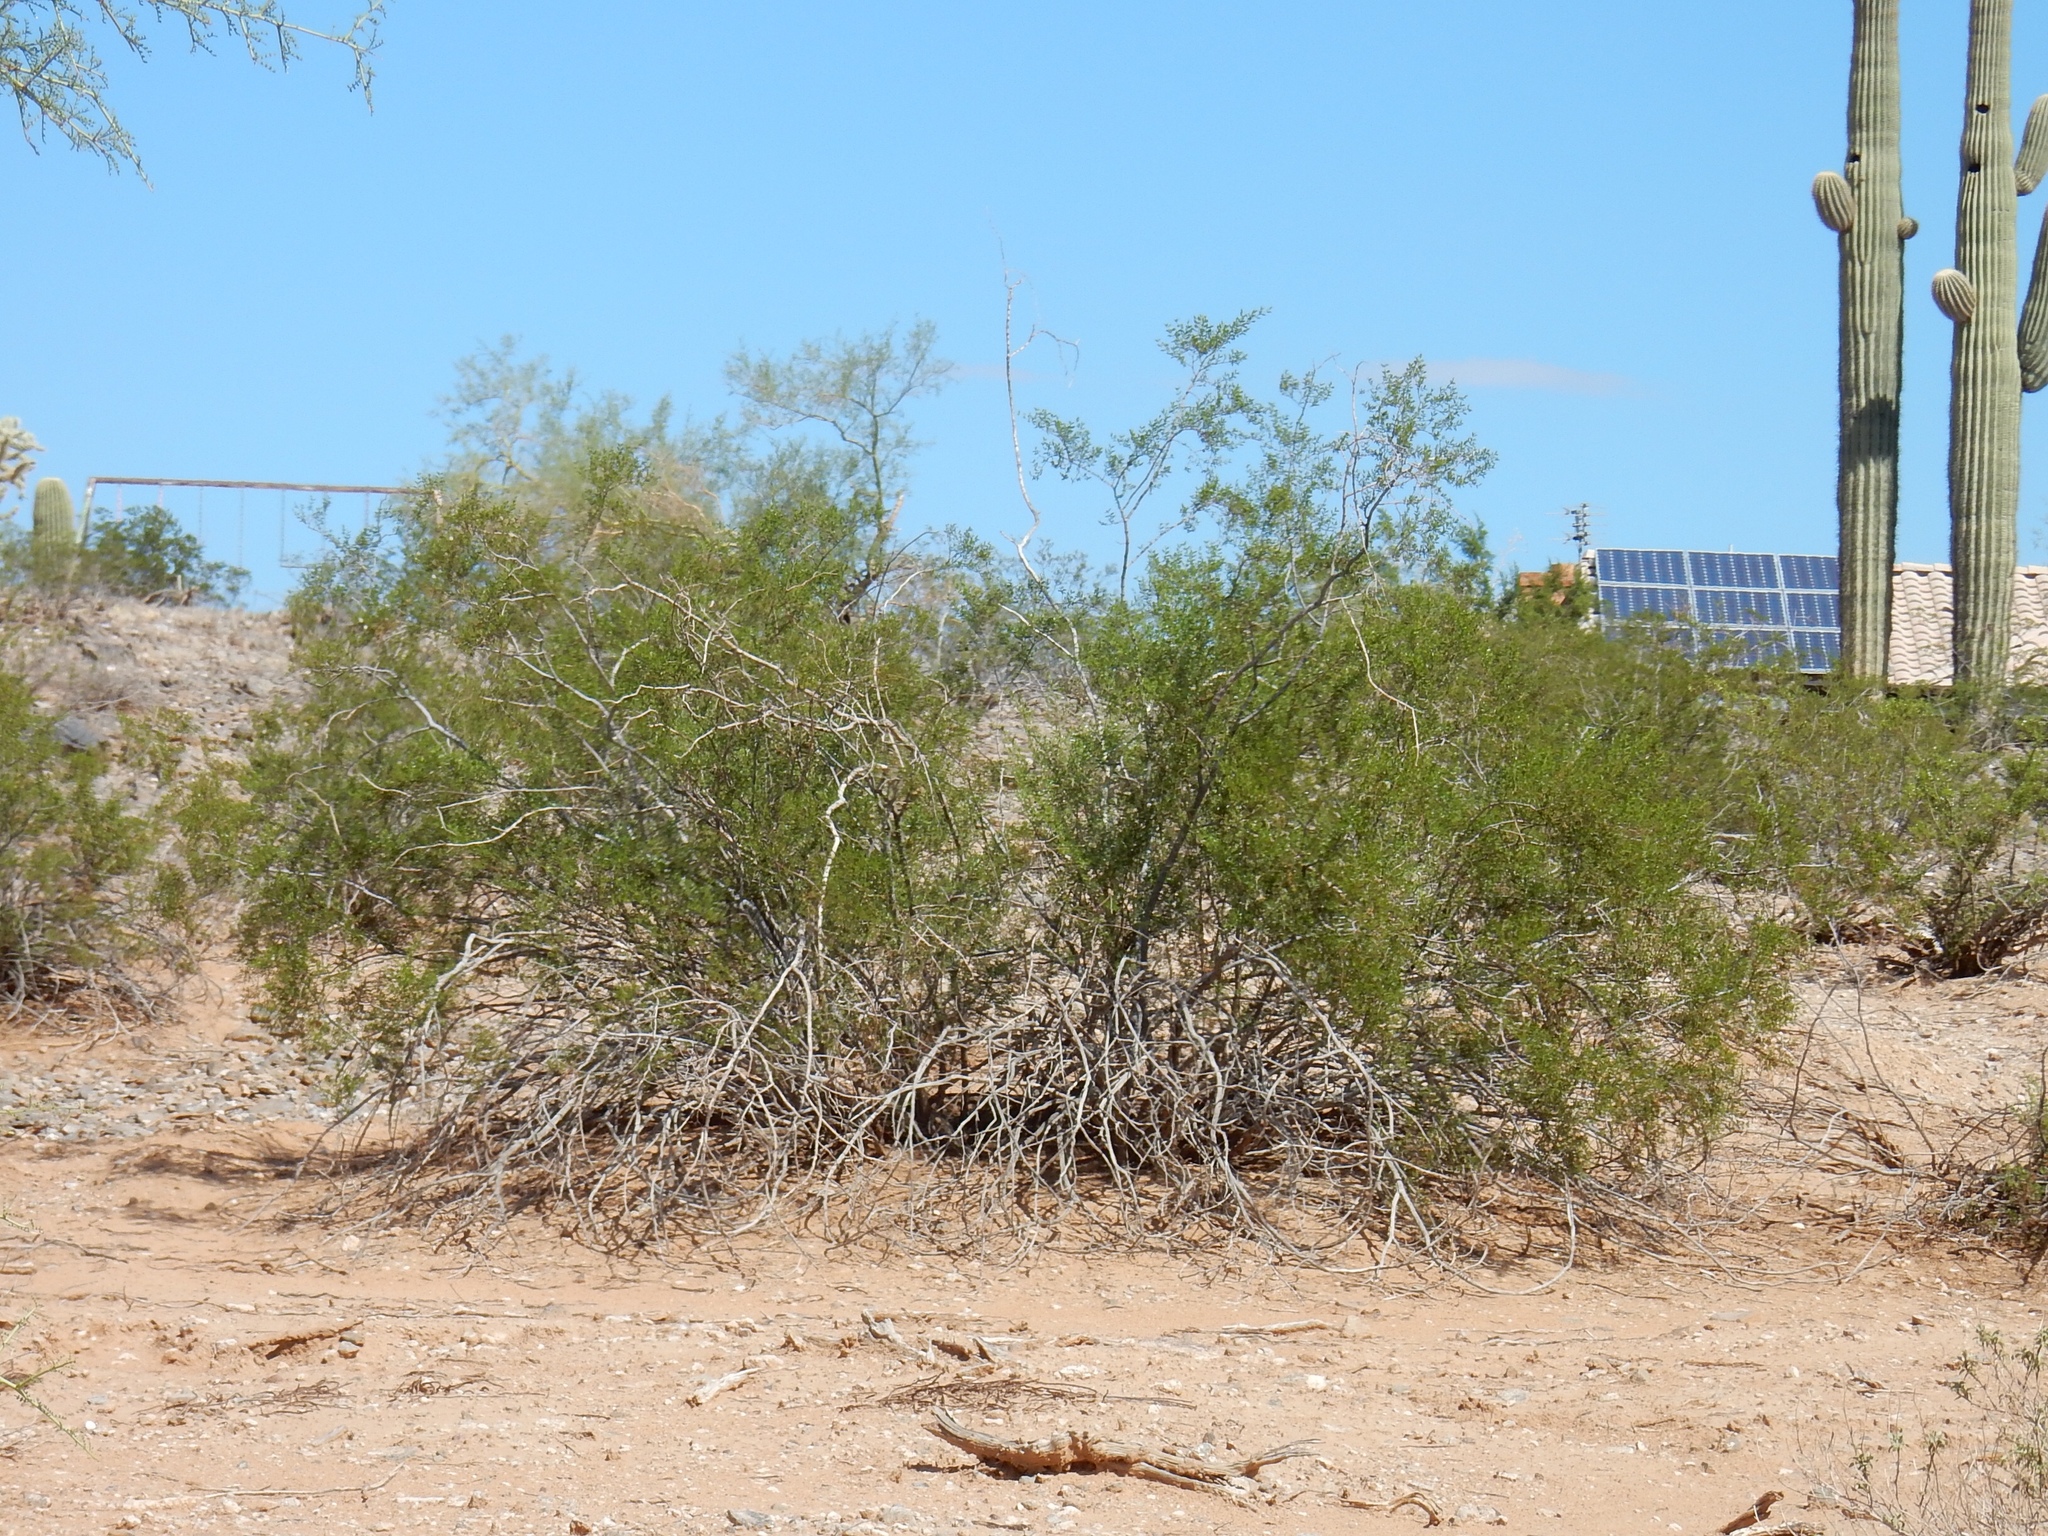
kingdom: Plantae
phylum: Tracheophyta
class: Magnoliopsida
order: Zygophyllales
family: Zygophyllaceae
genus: Larrea
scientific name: Larrea tridentata
